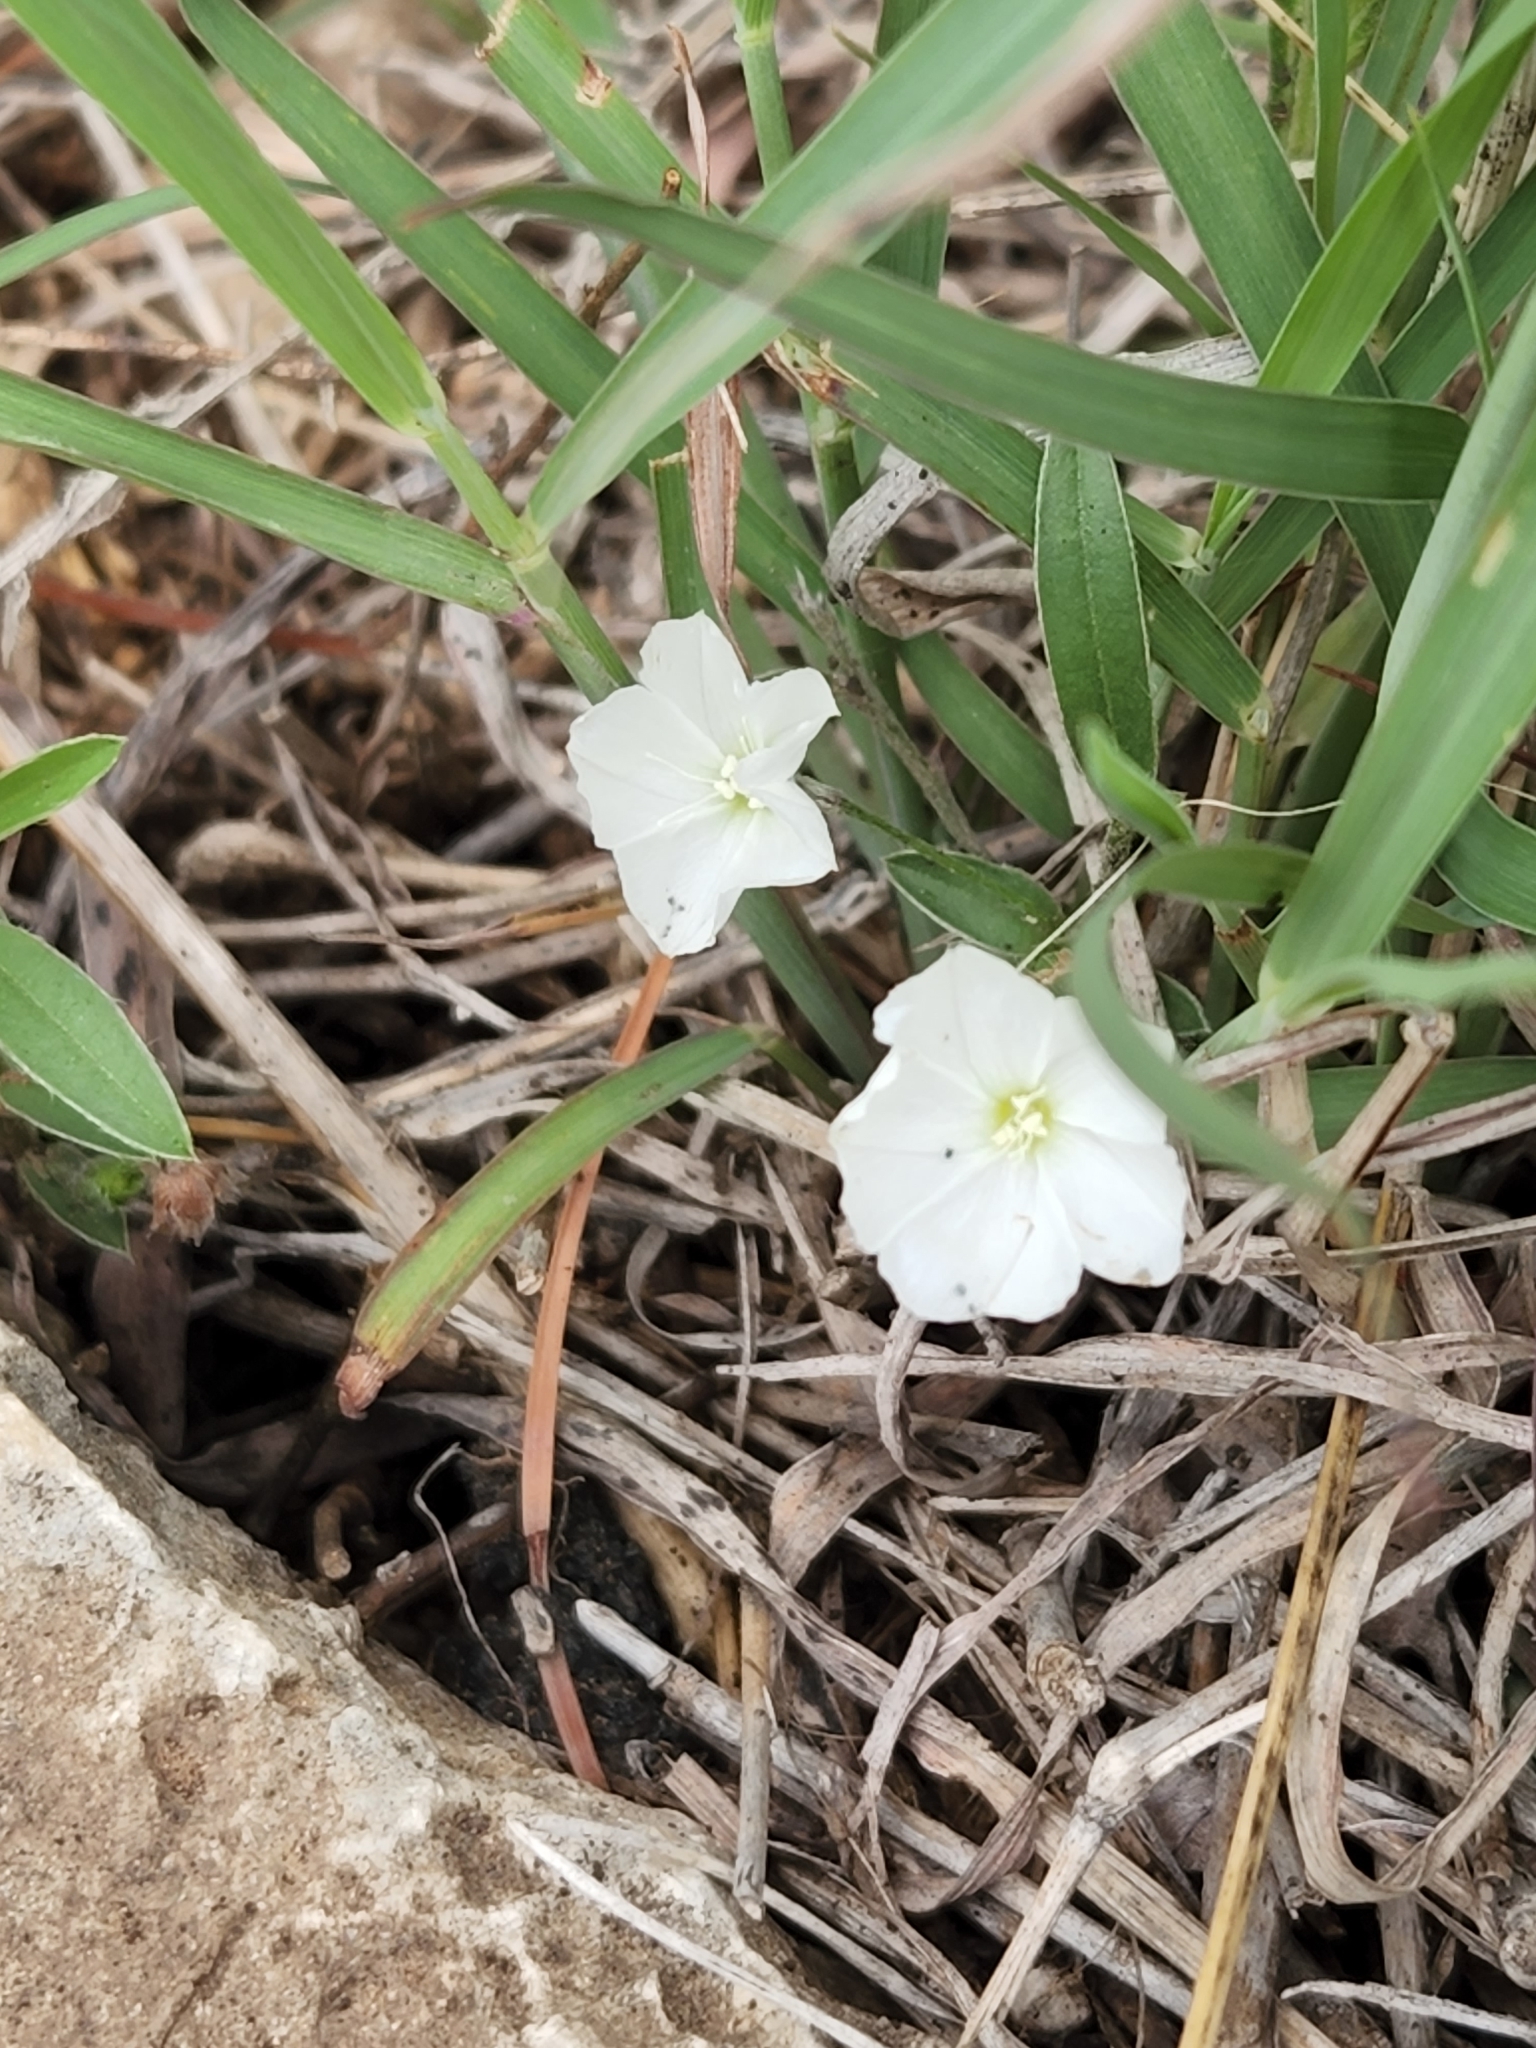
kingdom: Plantae
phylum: Tracheophyta
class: Magnoliopsida
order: Solanales
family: Convolvulaceae
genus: Evolvulus
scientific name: Evolvulus sericeus
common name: Blue dots
